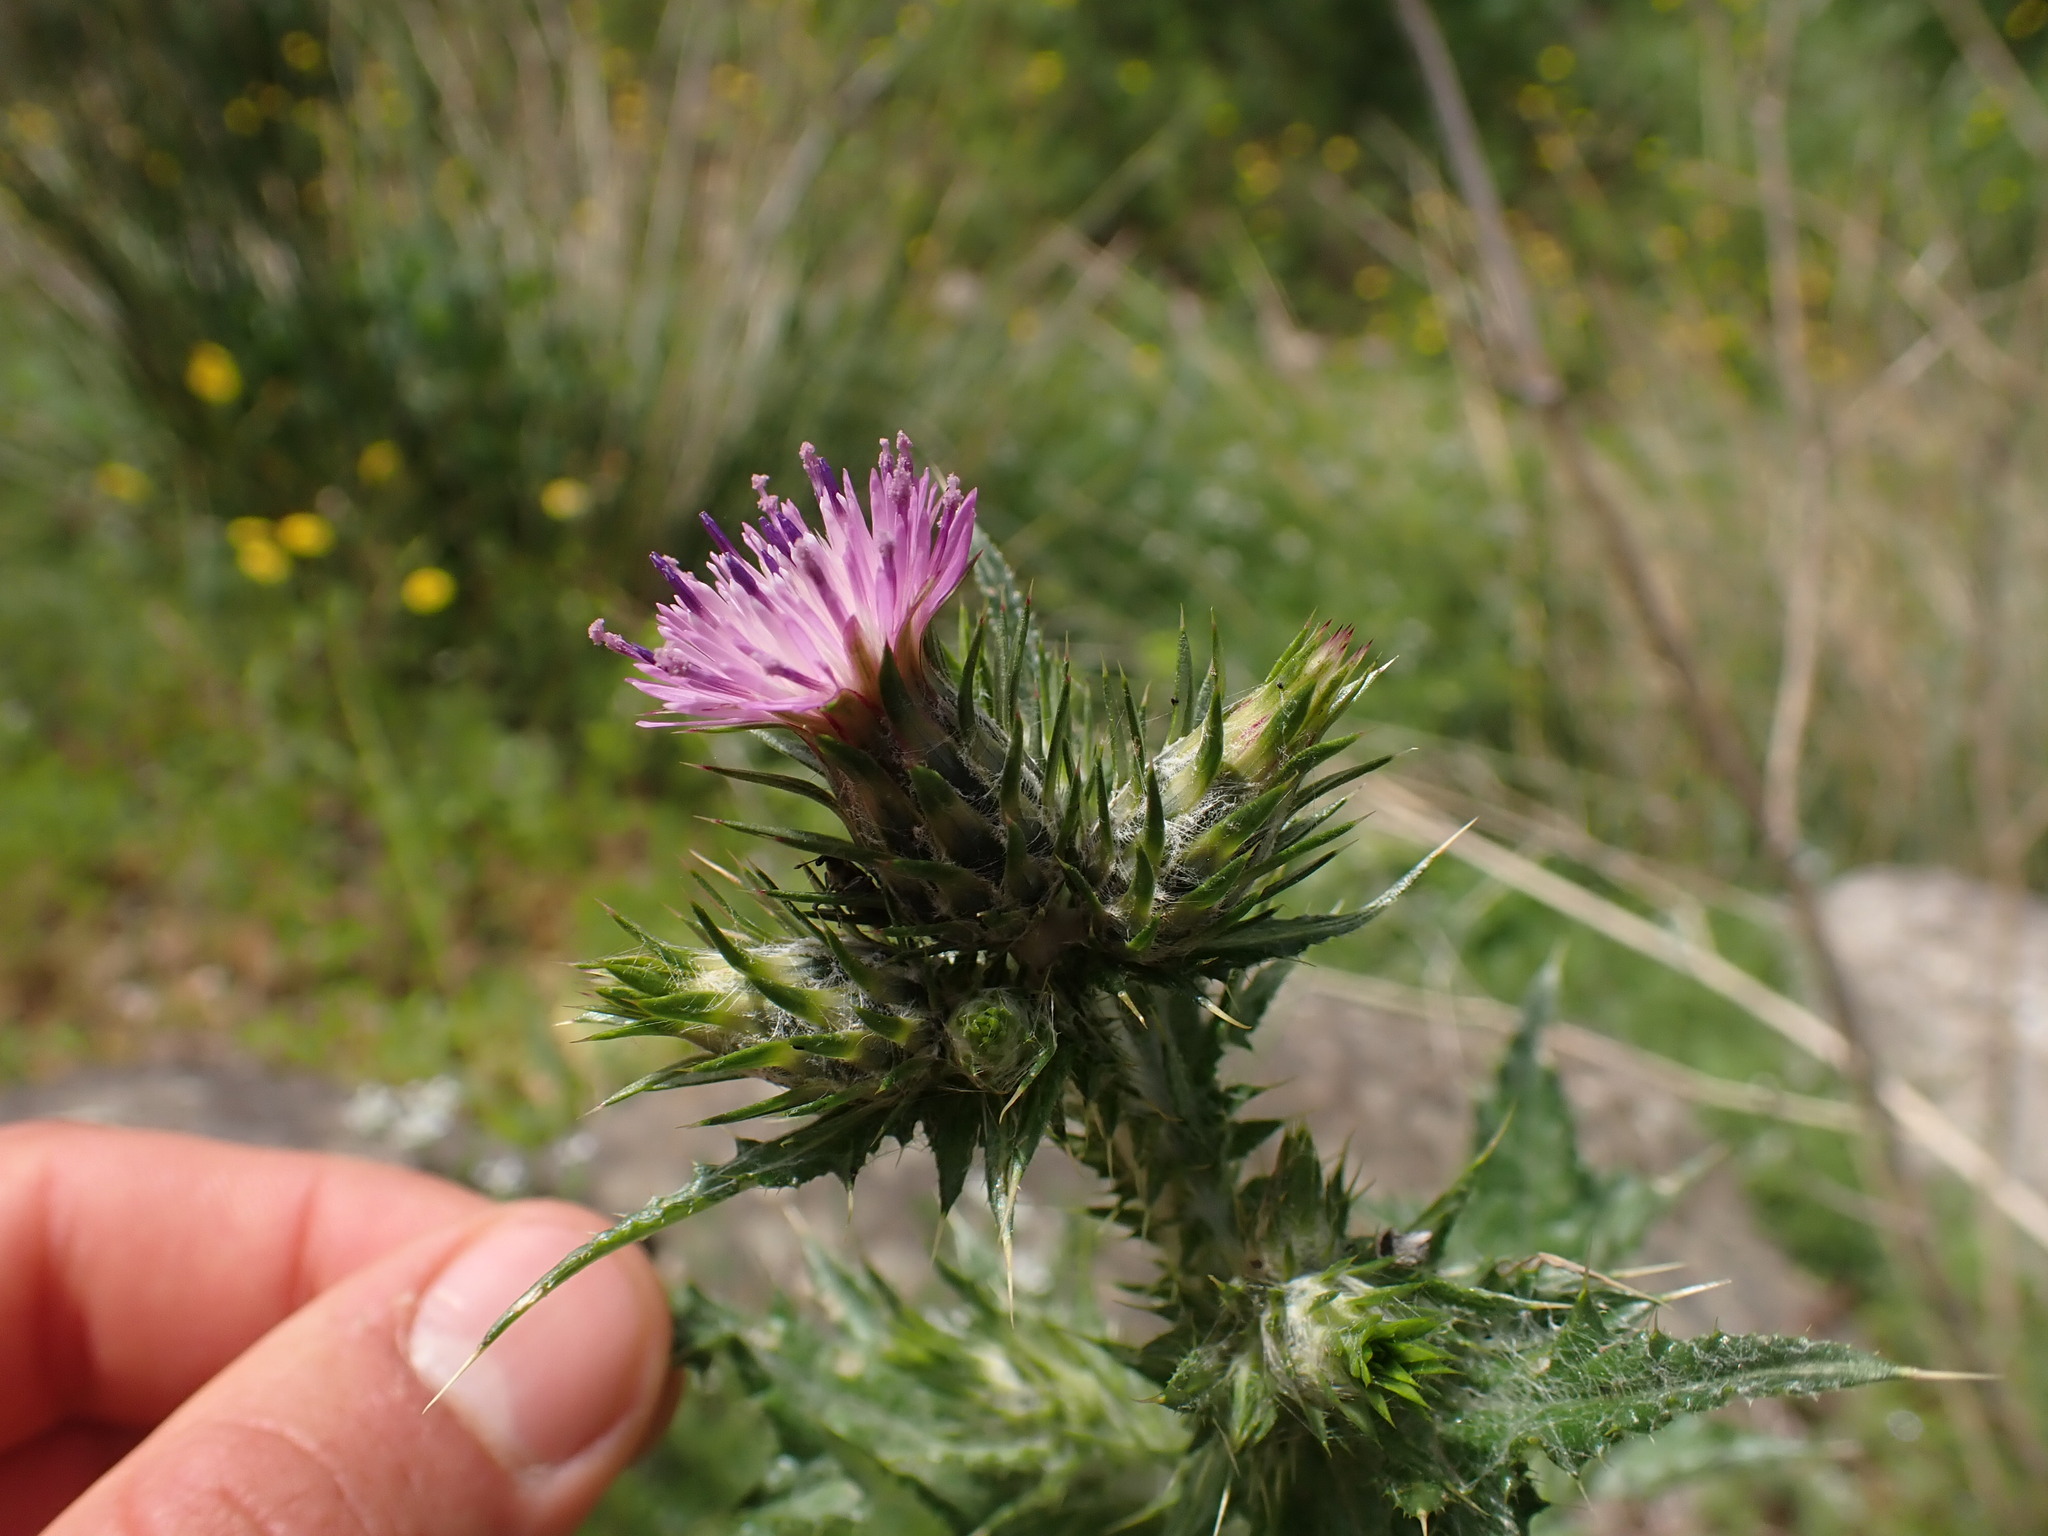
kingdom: Plantae
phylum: Tracheophyta
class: Magnoliopsida
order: Asterales
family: Asteraceae
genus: Carduus
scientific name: Carduus pycnocephalus
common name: Plymouth thistle
